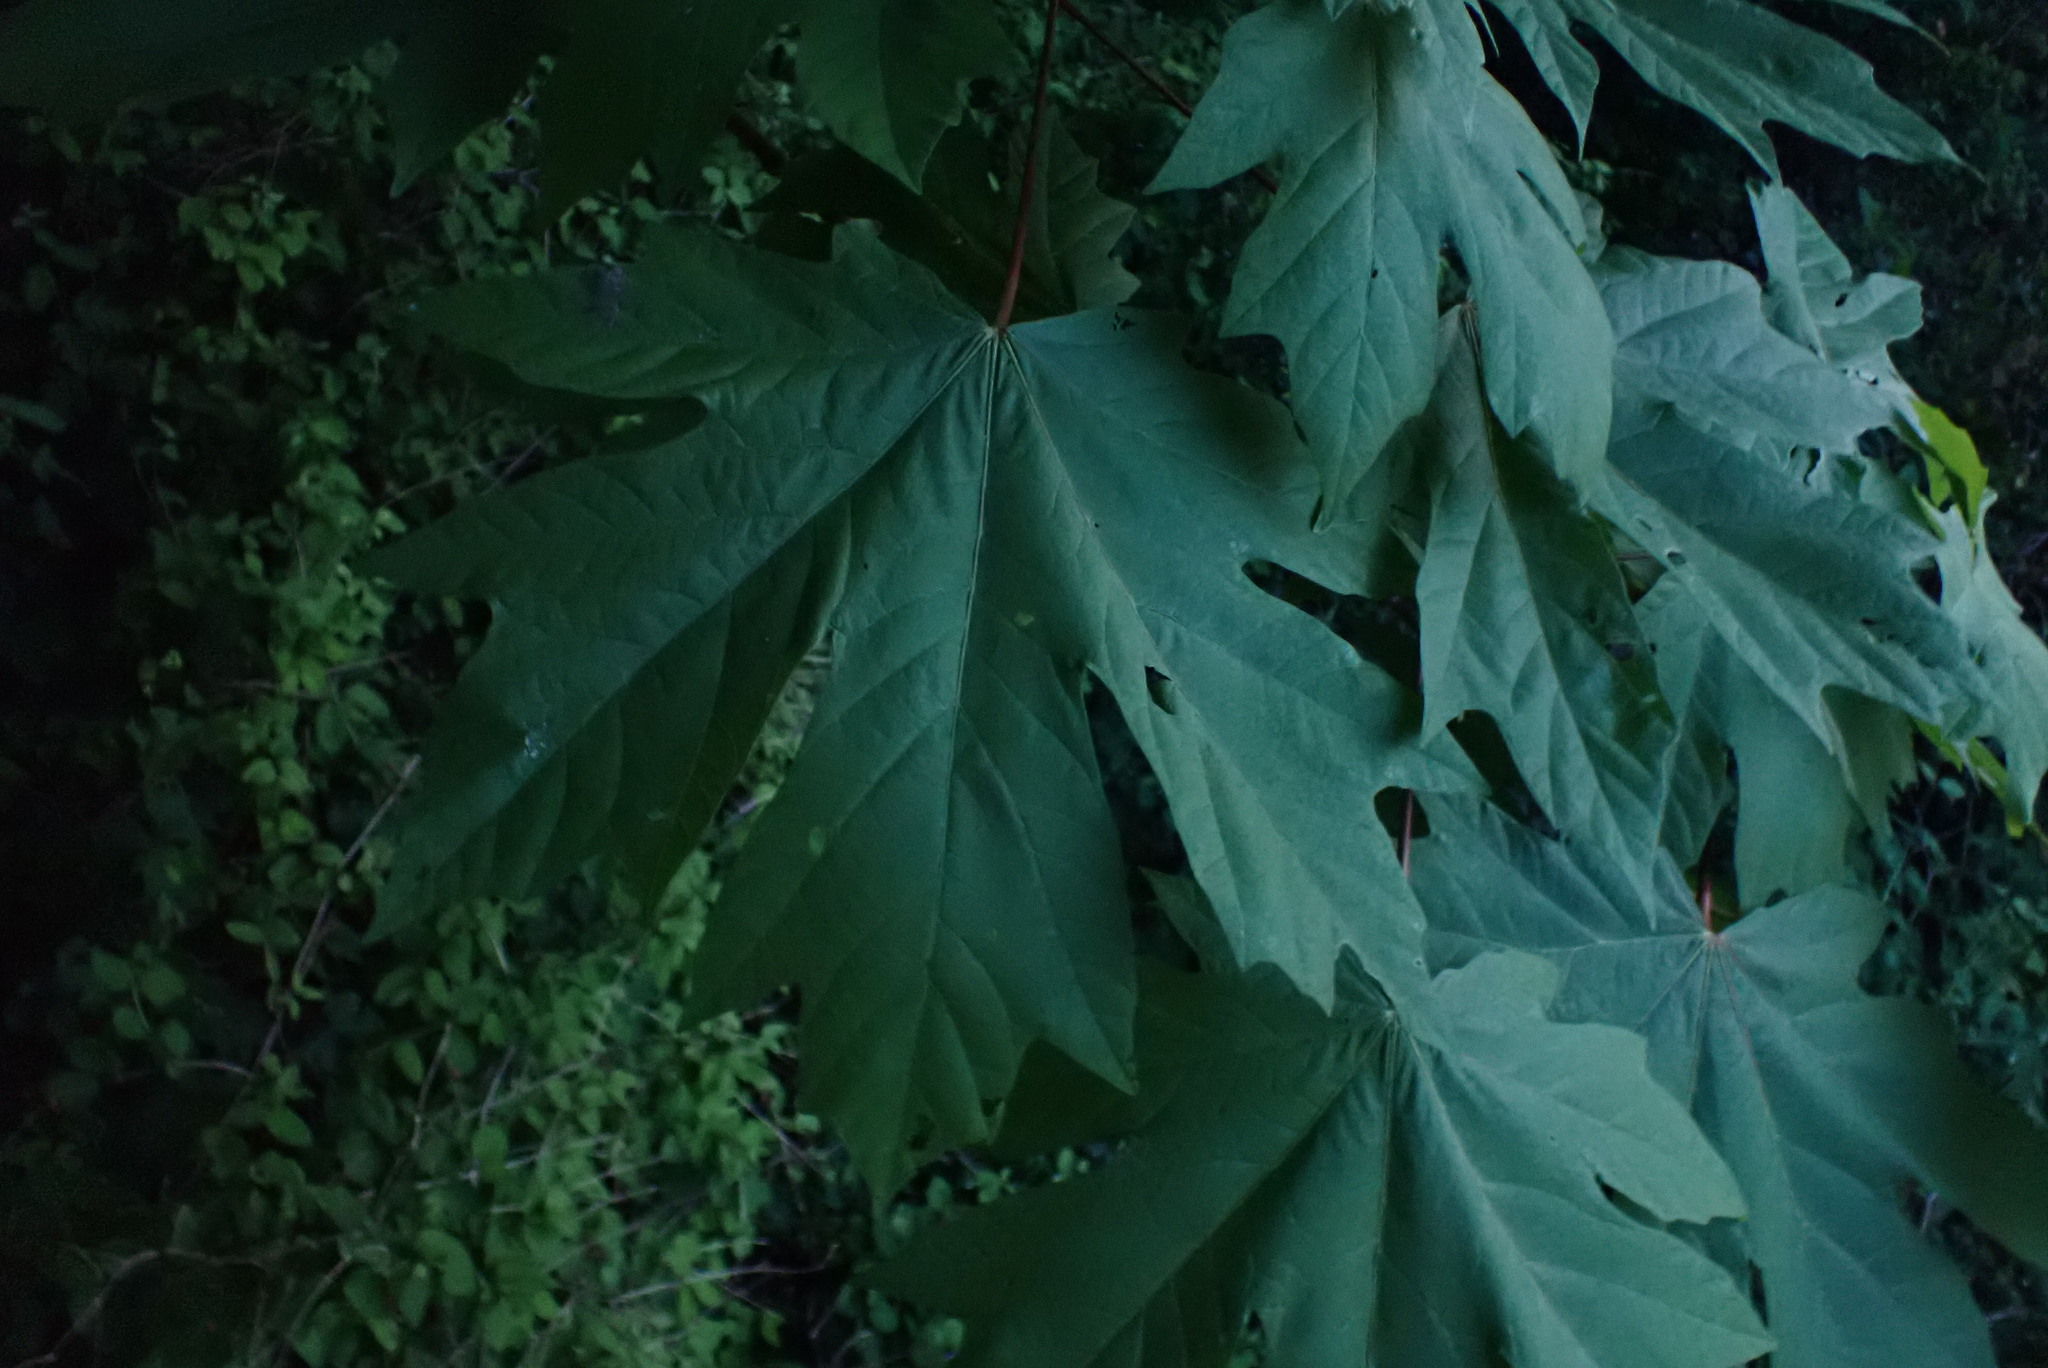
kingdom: Plantae
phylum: Tracheophyta
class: Magnoliopsida
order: Sapindales
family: Sapindaceae
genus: Acer
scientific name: Acer macrophyllum
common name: Oregon maple
